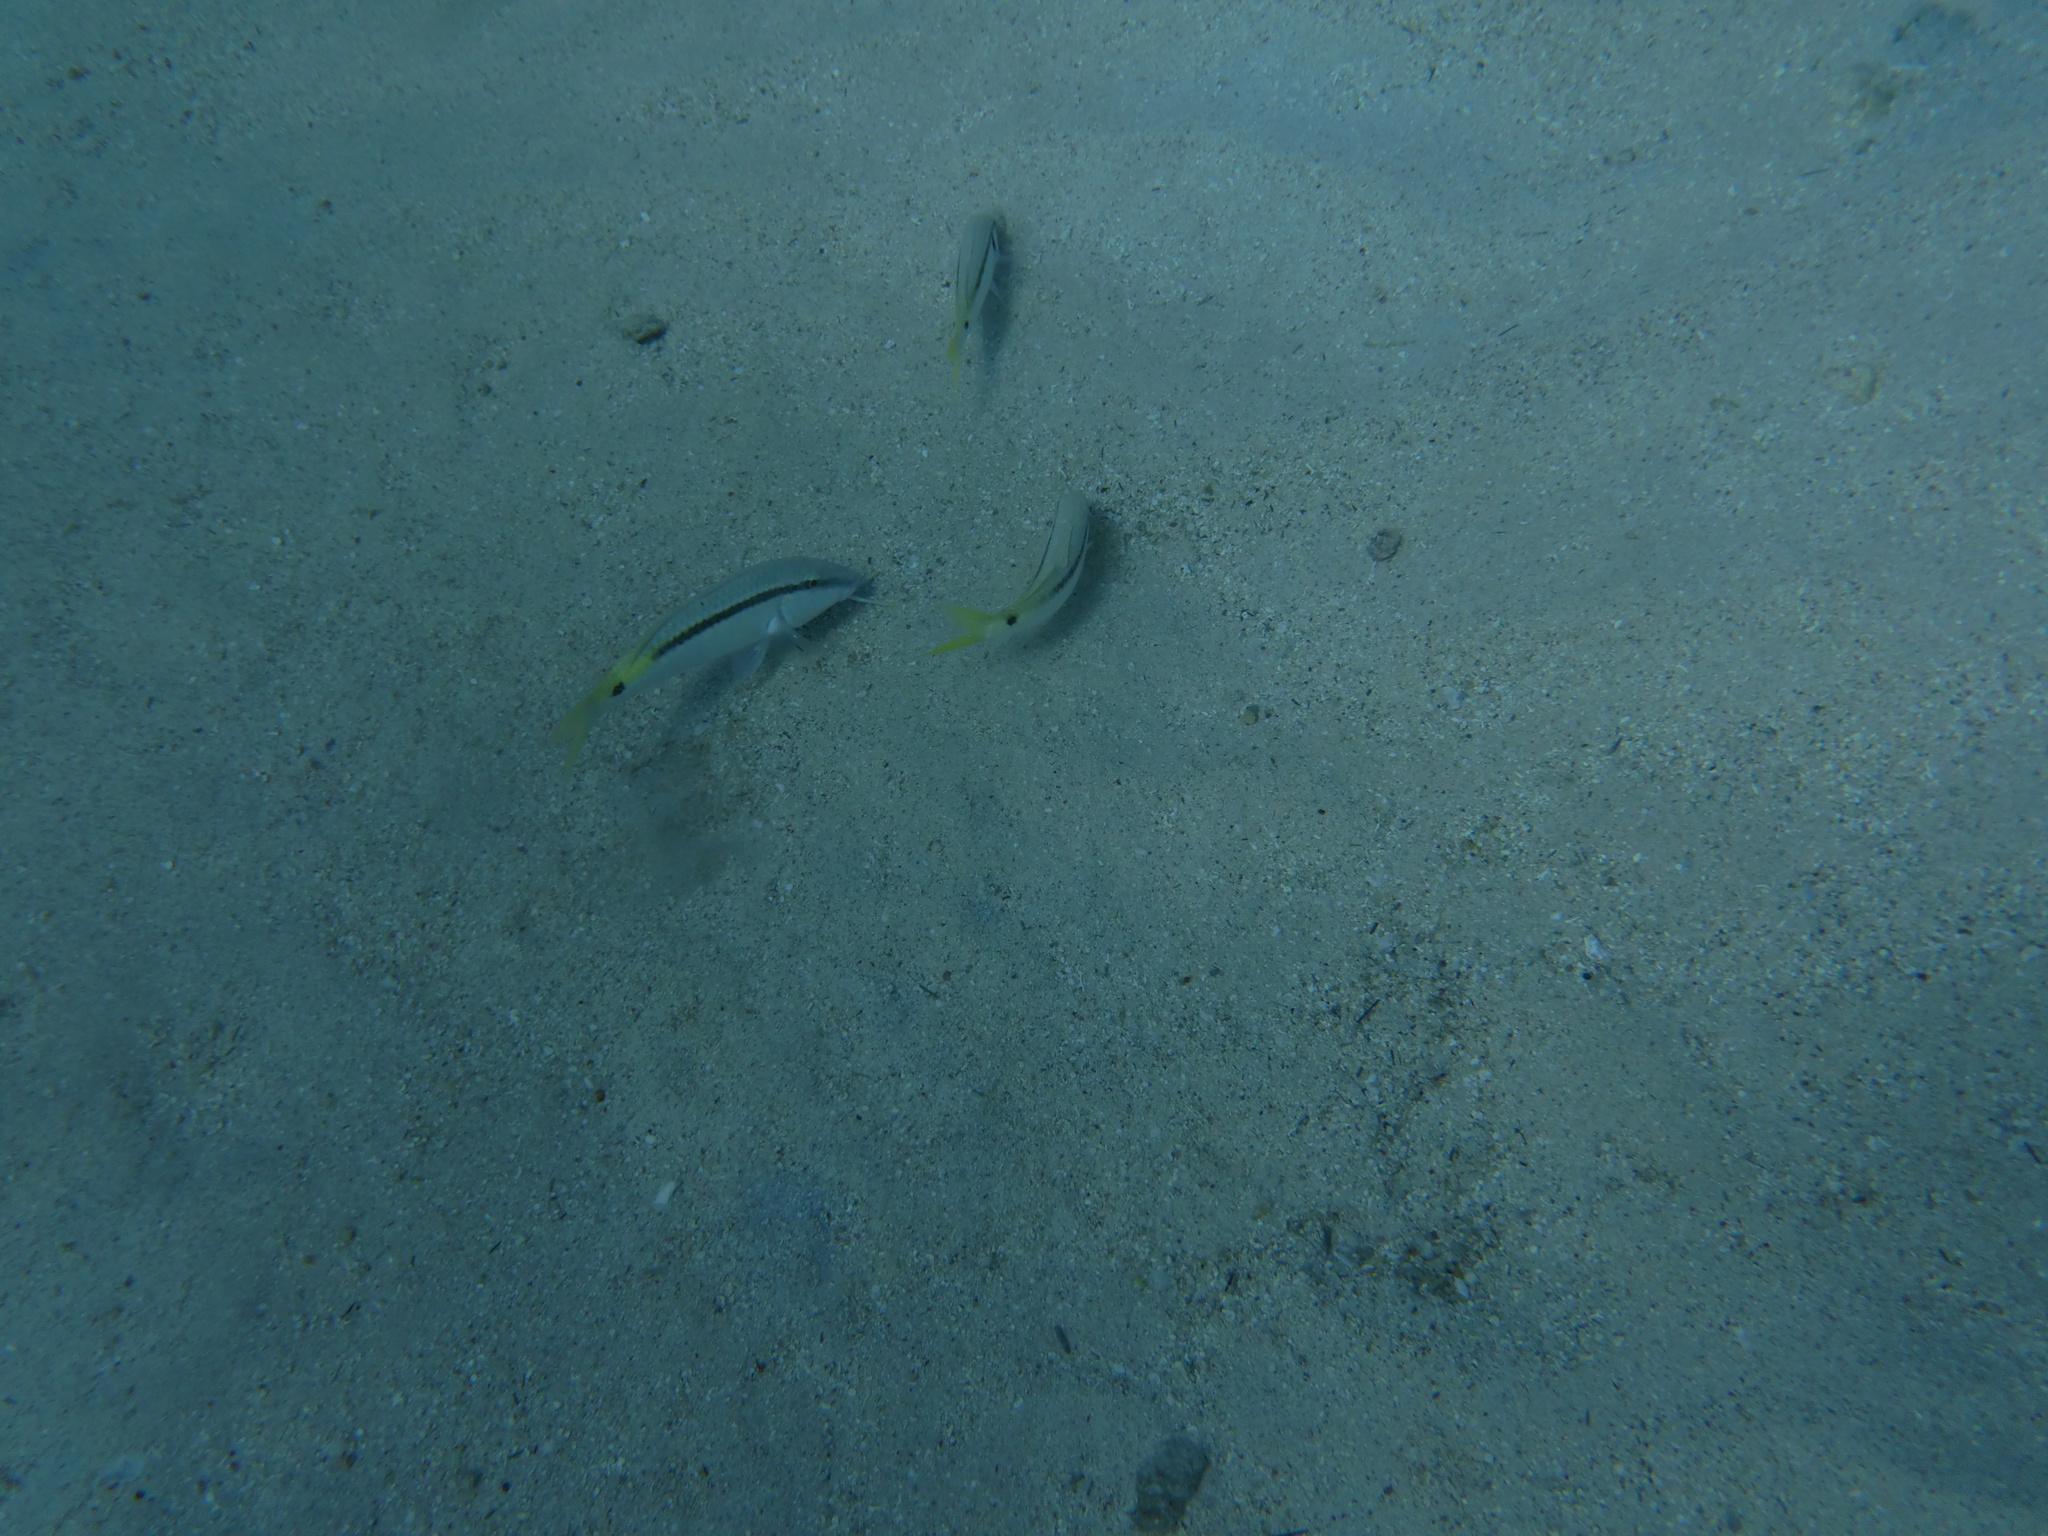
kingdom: Animalia
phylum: Chordata
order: Perciformes
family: Mullidae
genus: Parupeneus
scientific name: Parupeneus forsskali
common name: Red sea goatfish
